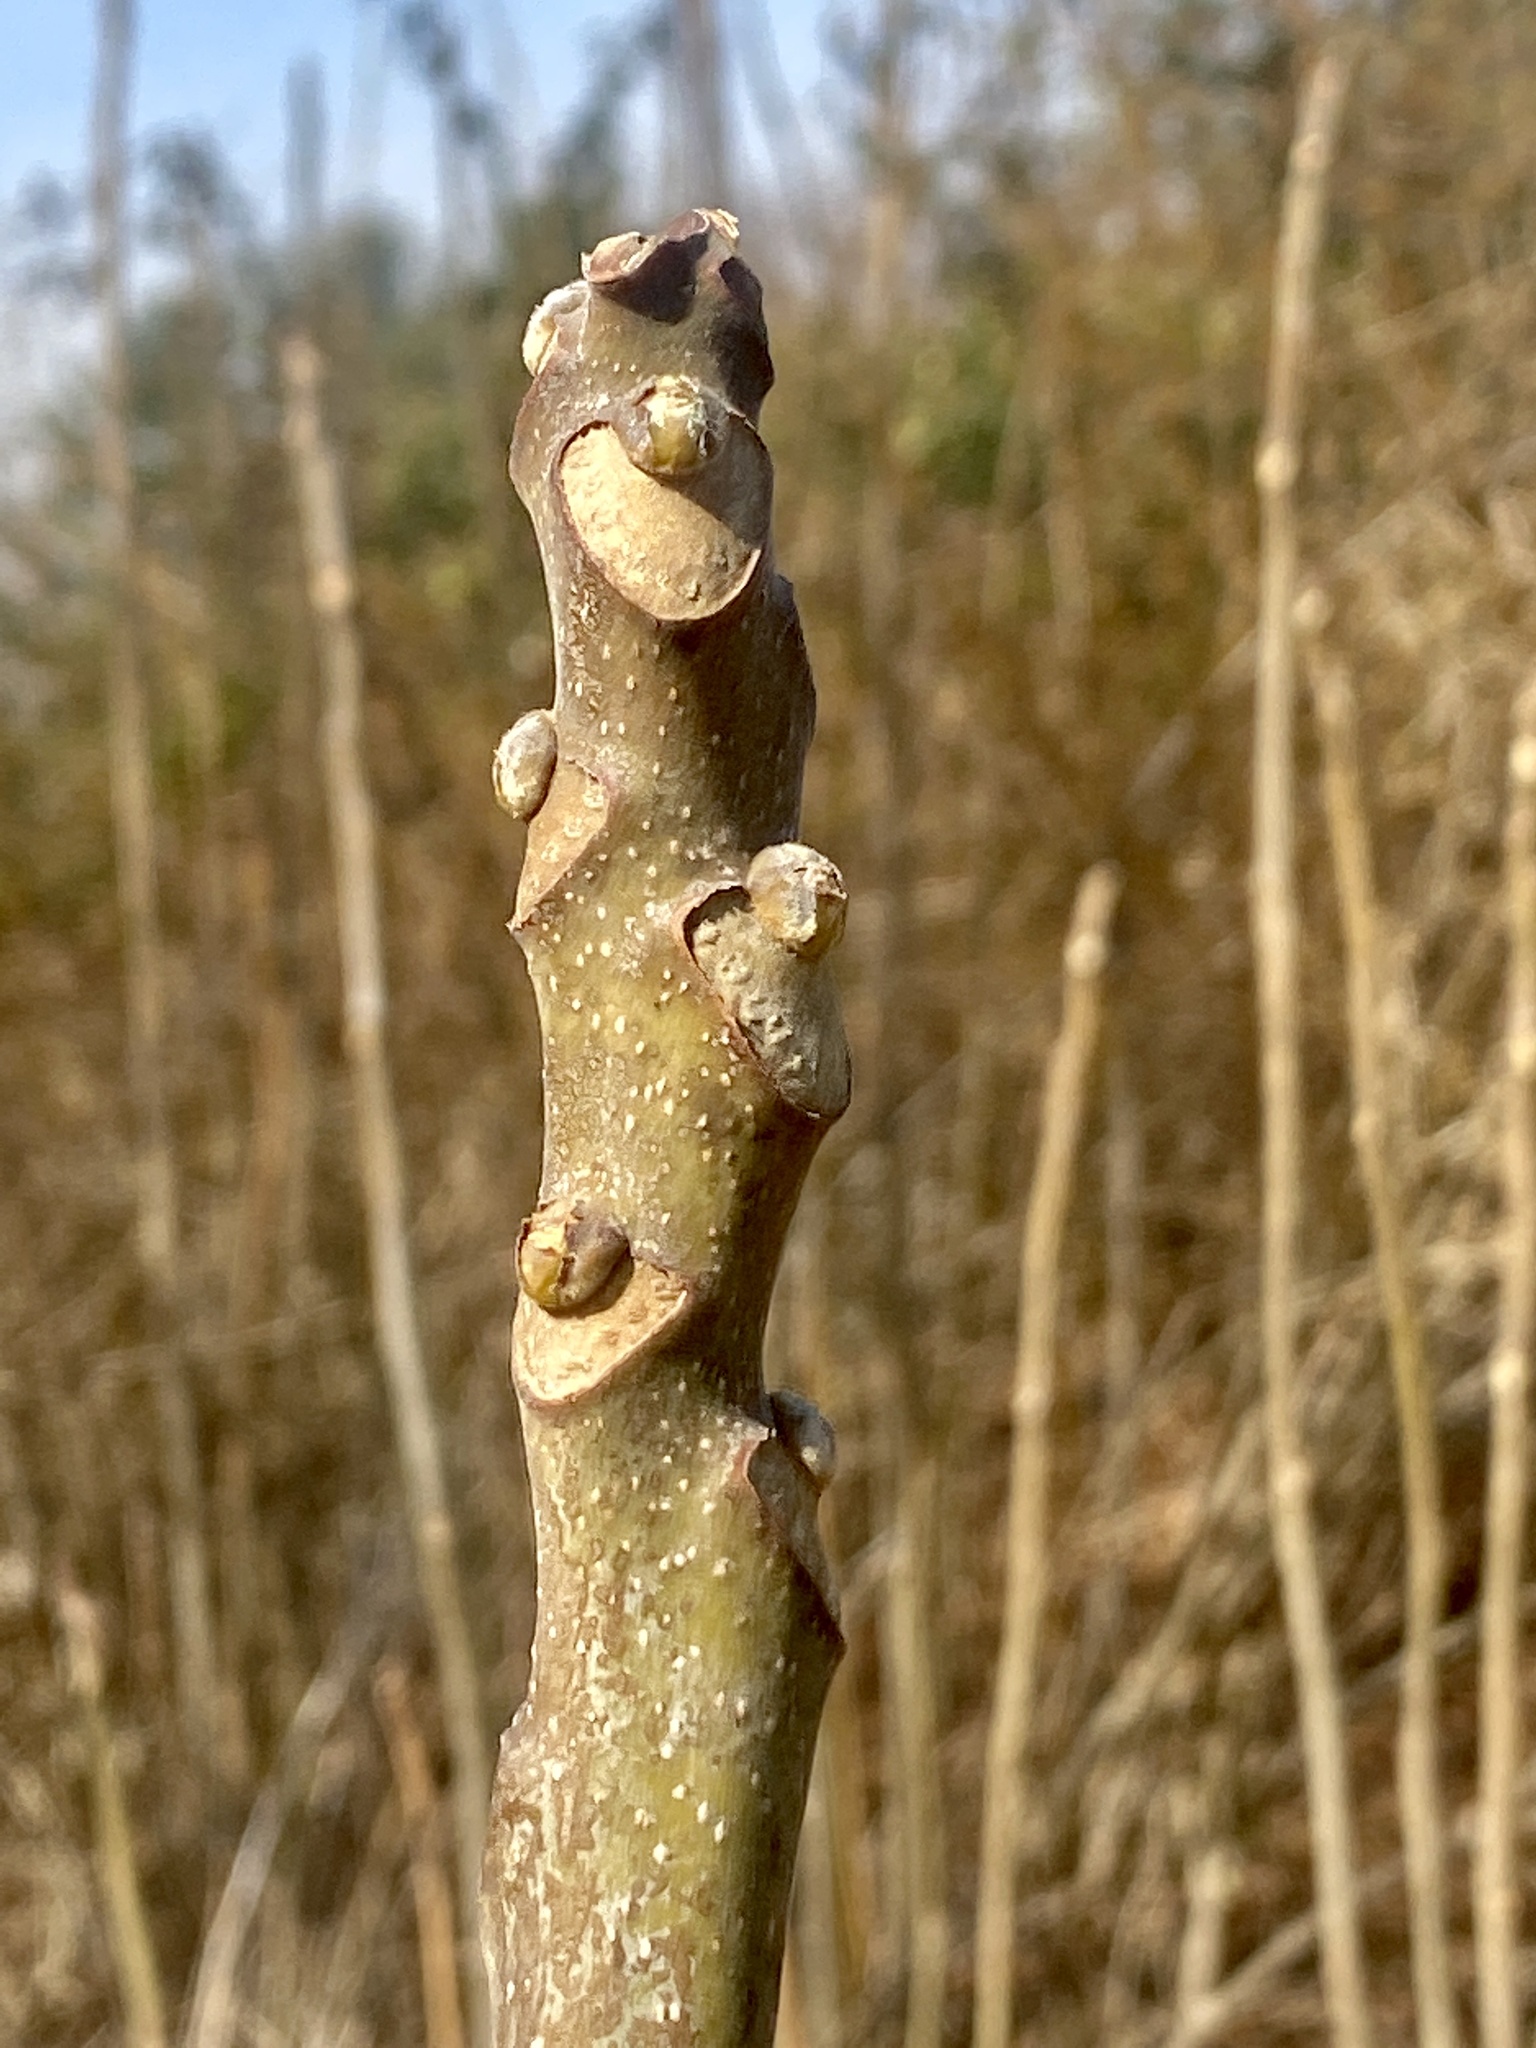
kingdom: Plantae
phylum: Tracheophyta
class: Magnoliopsida
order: Sapindales
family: Simaroubaceae
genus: Ailanthus
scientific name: Ailanthus altissima
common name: Tree-of-heaven
